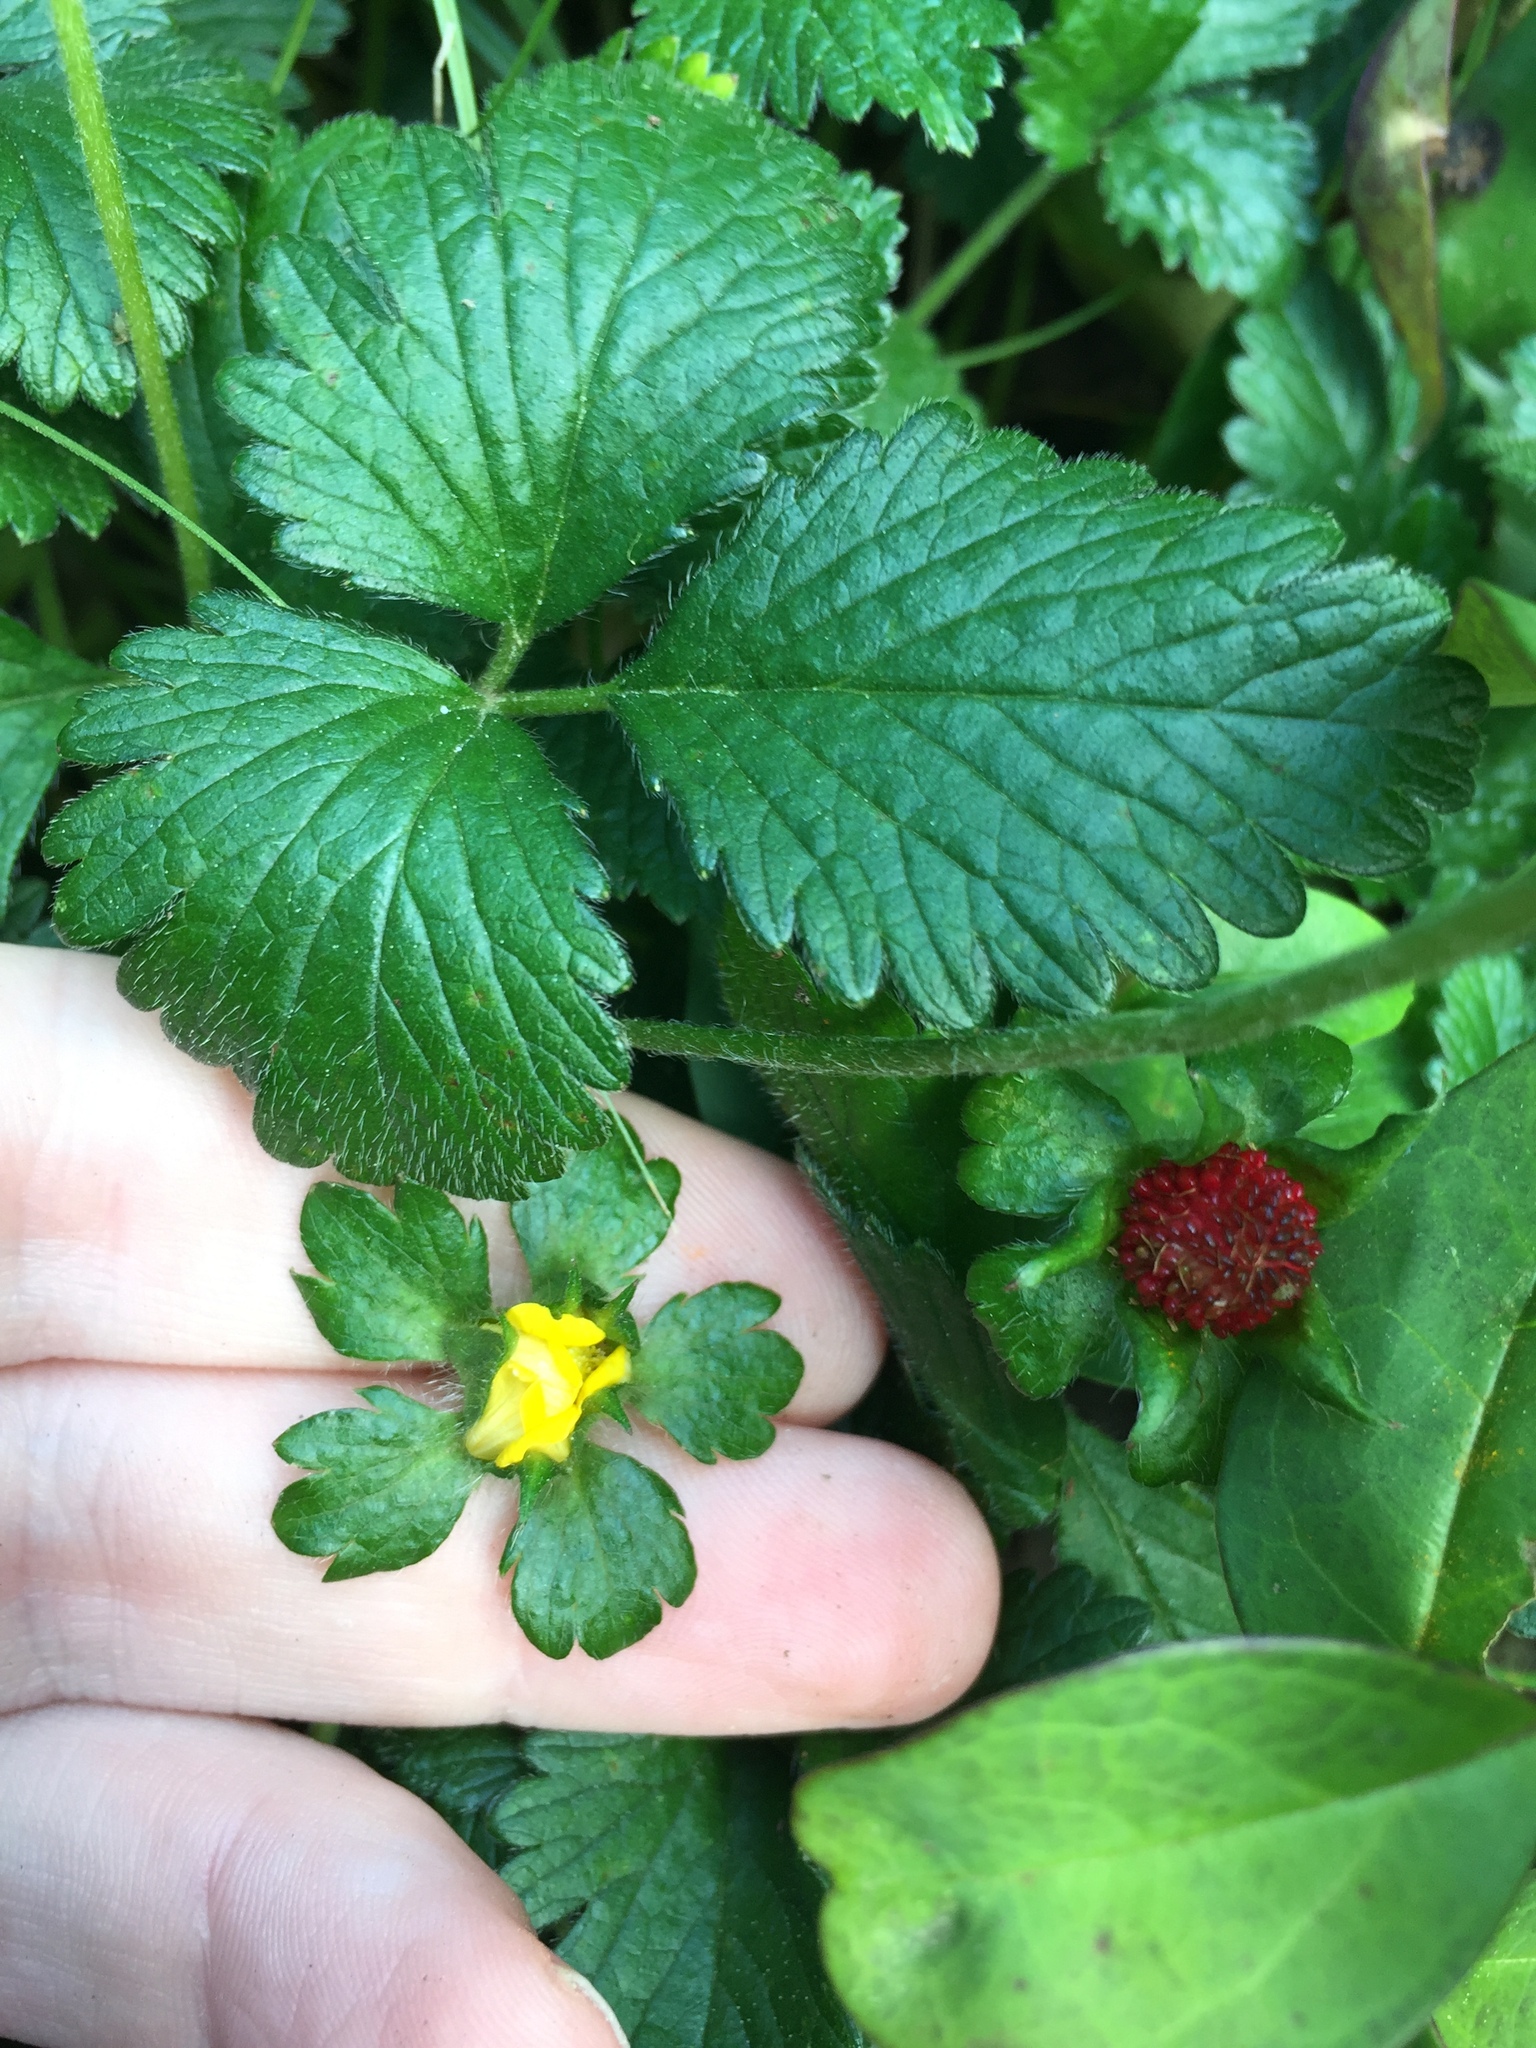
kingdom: Plantae
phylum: Tracheophyta
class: Magnoliopsida
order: Rosales
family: Rosaceae
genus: Potentilla
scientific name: Potentilla indica
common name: Yellow-flowered strawberry
